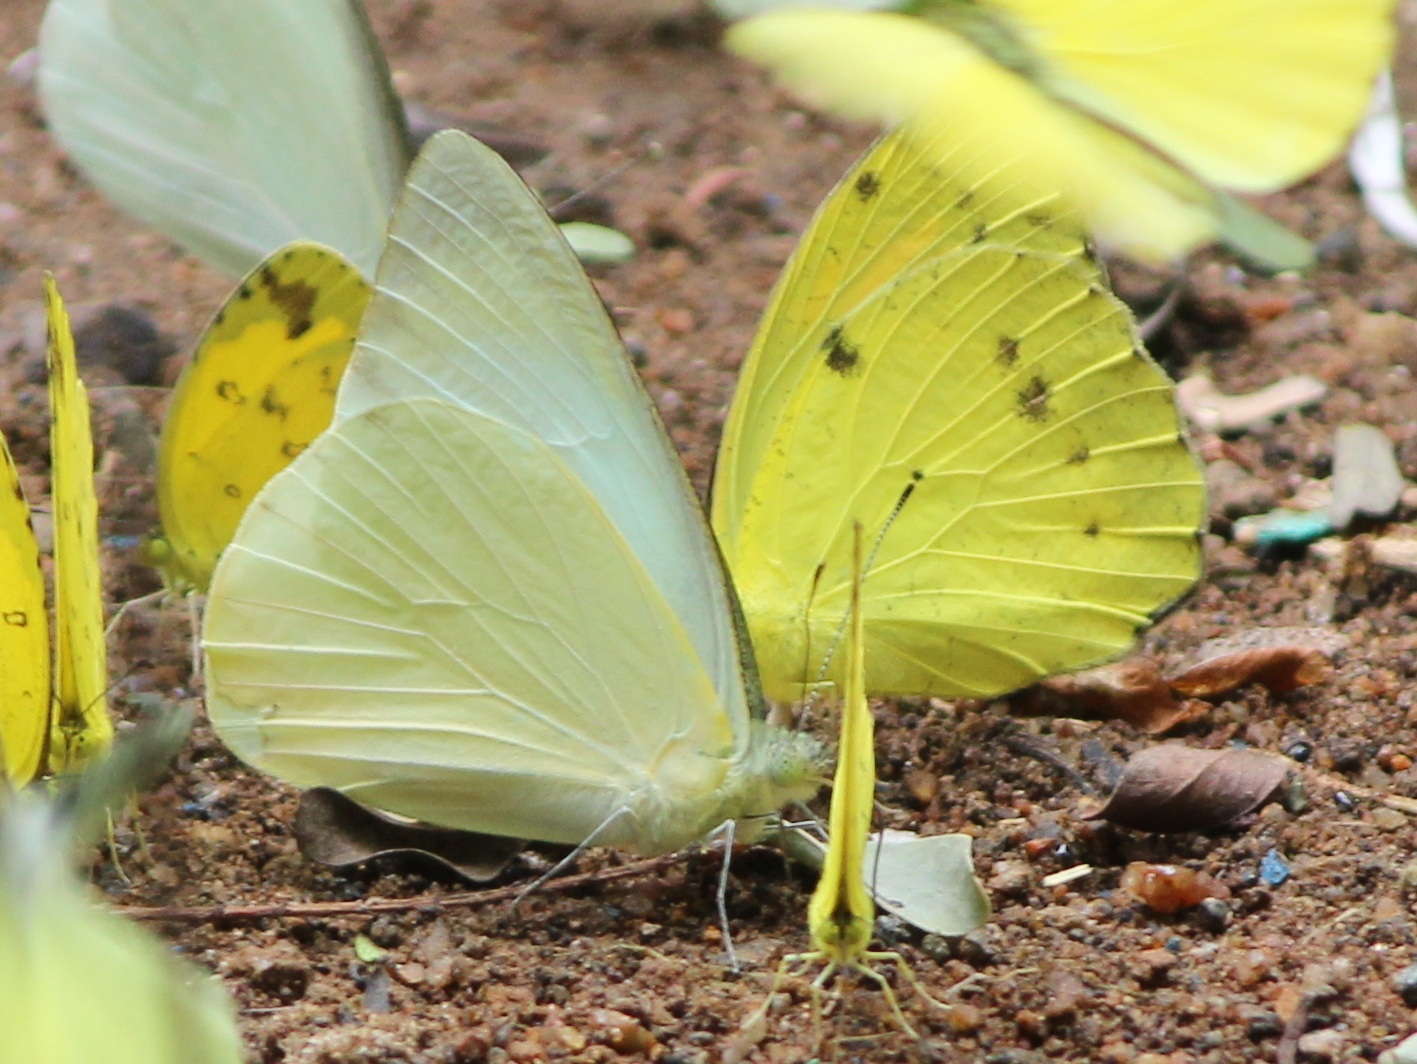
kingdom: Animalia
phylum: Arthropoda
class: Insecta
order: Lepidoptera
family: Pieridae
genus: Appias
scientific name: Appias albina
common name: Common albatross
